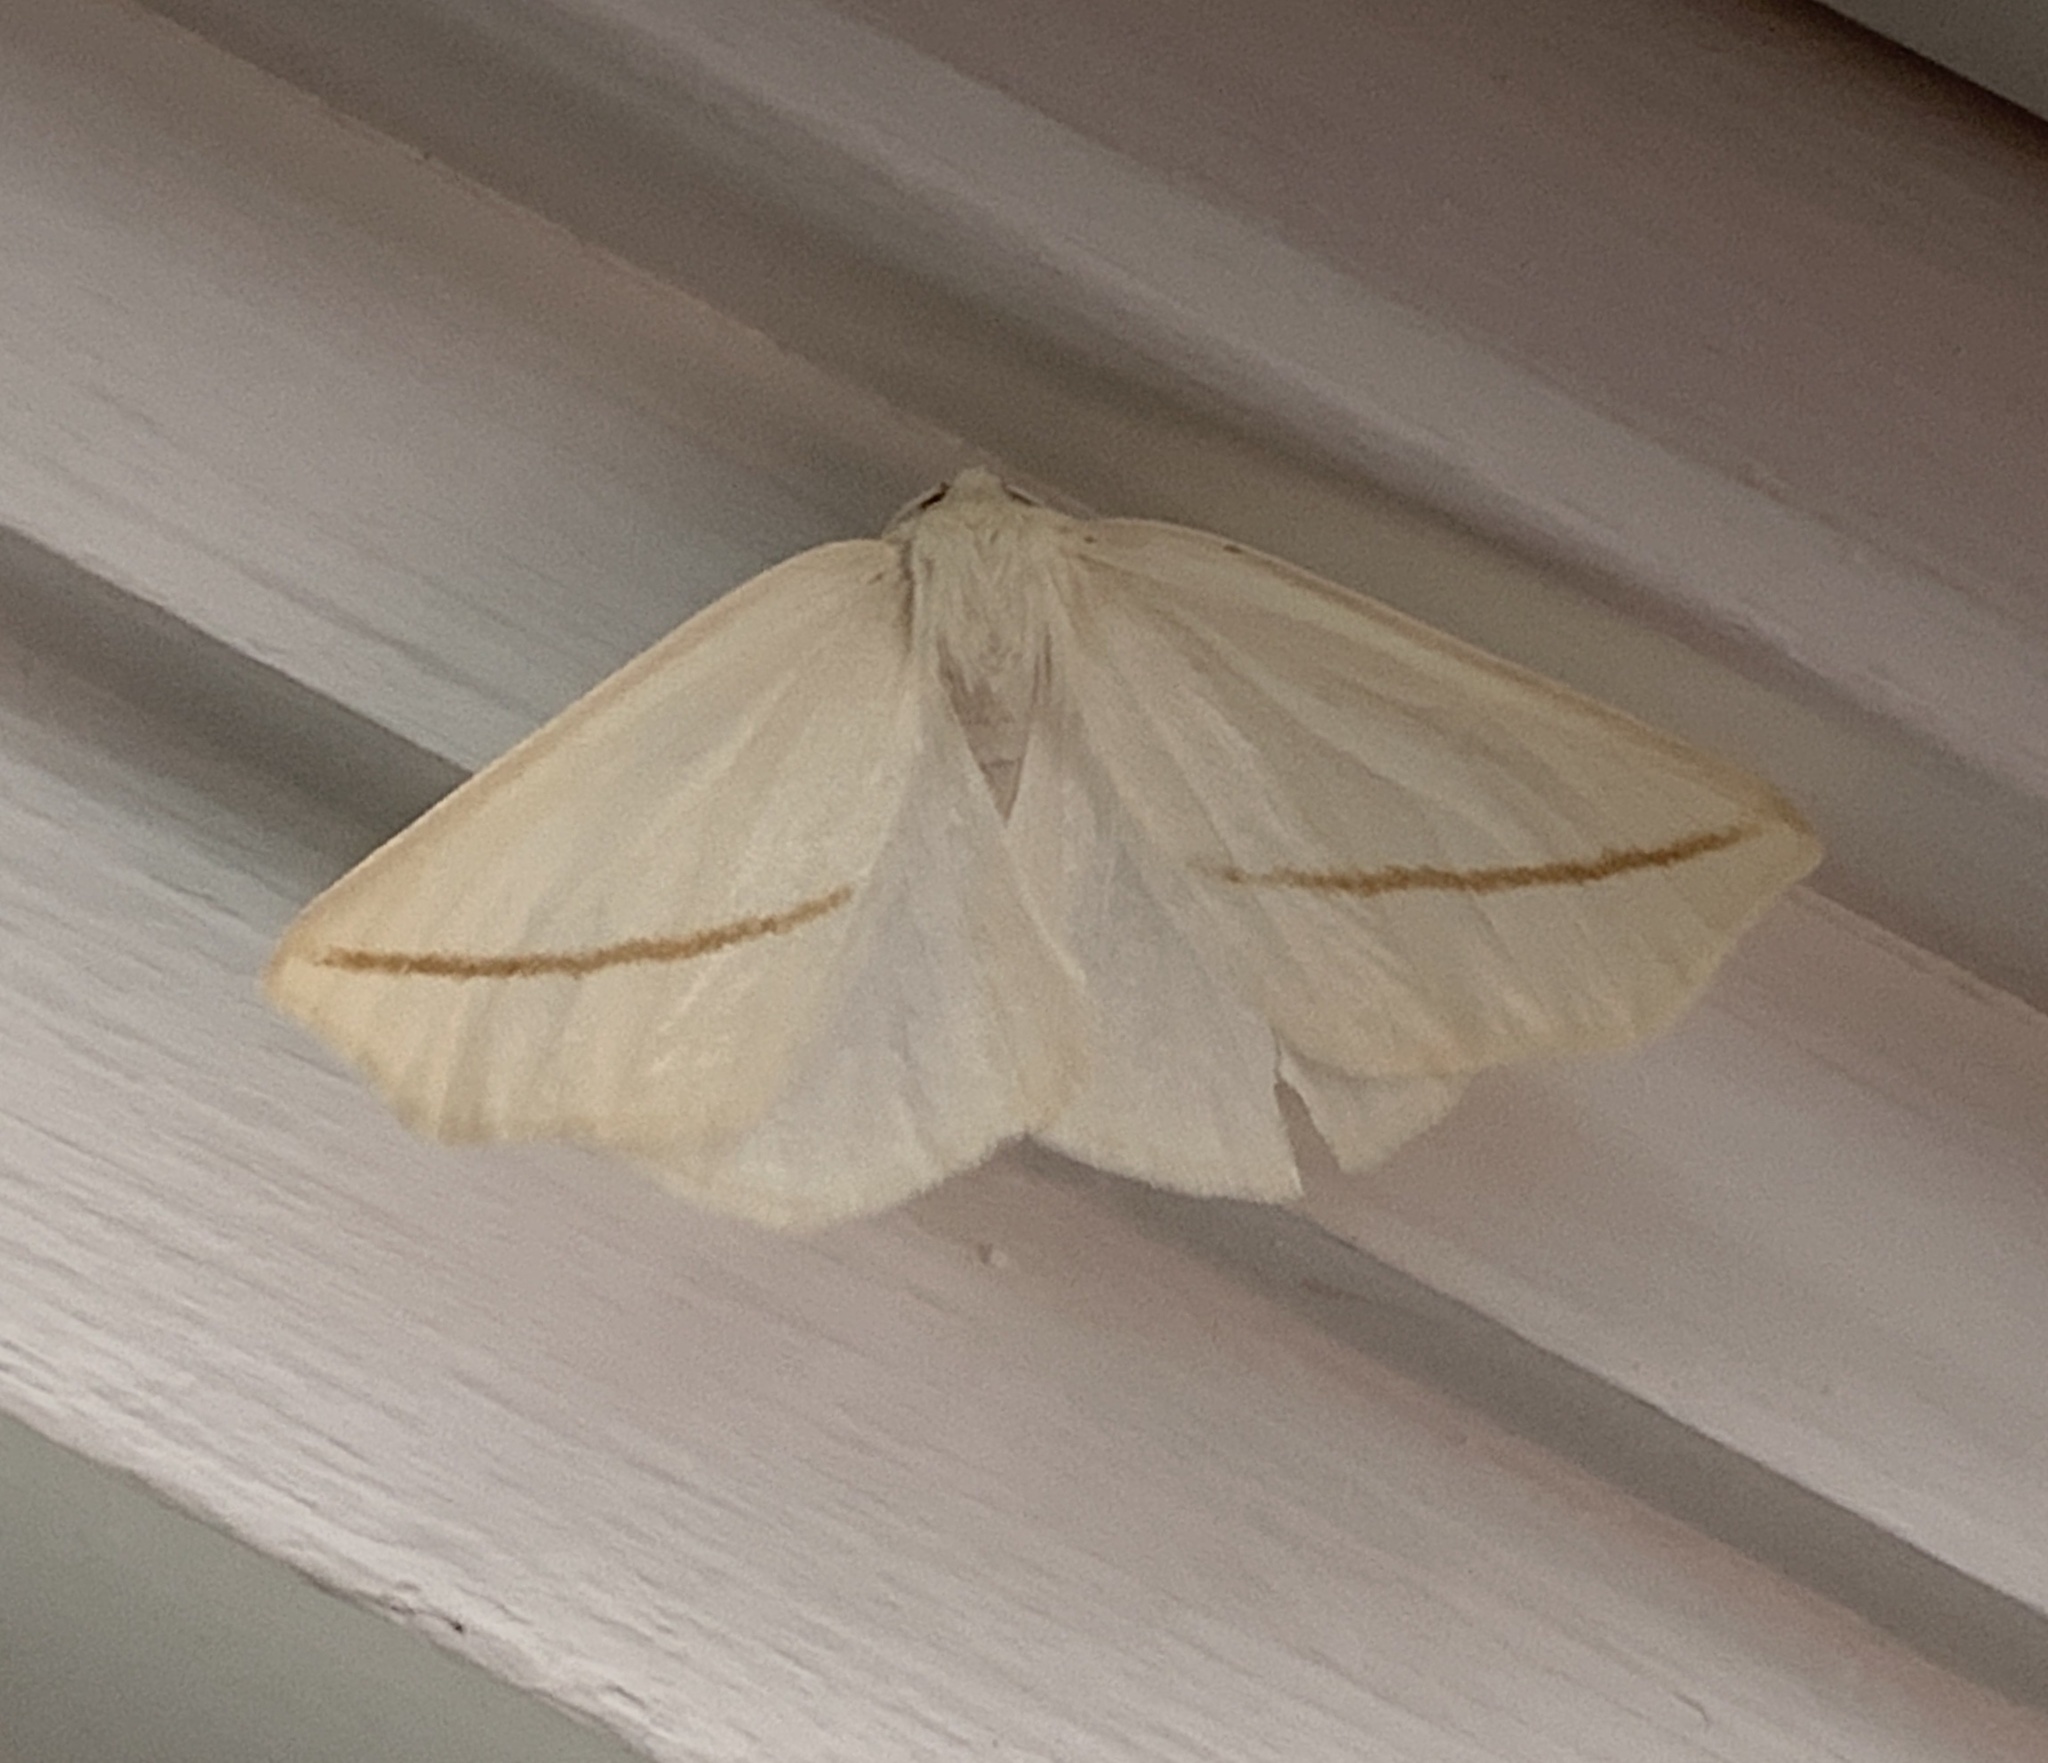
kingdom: Animalia
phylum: Arthropoda
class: Insecta
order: Lepidoptera
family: Geometridae
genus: Tetracis
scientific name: Tetracis cachexiata
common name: White slant-line
